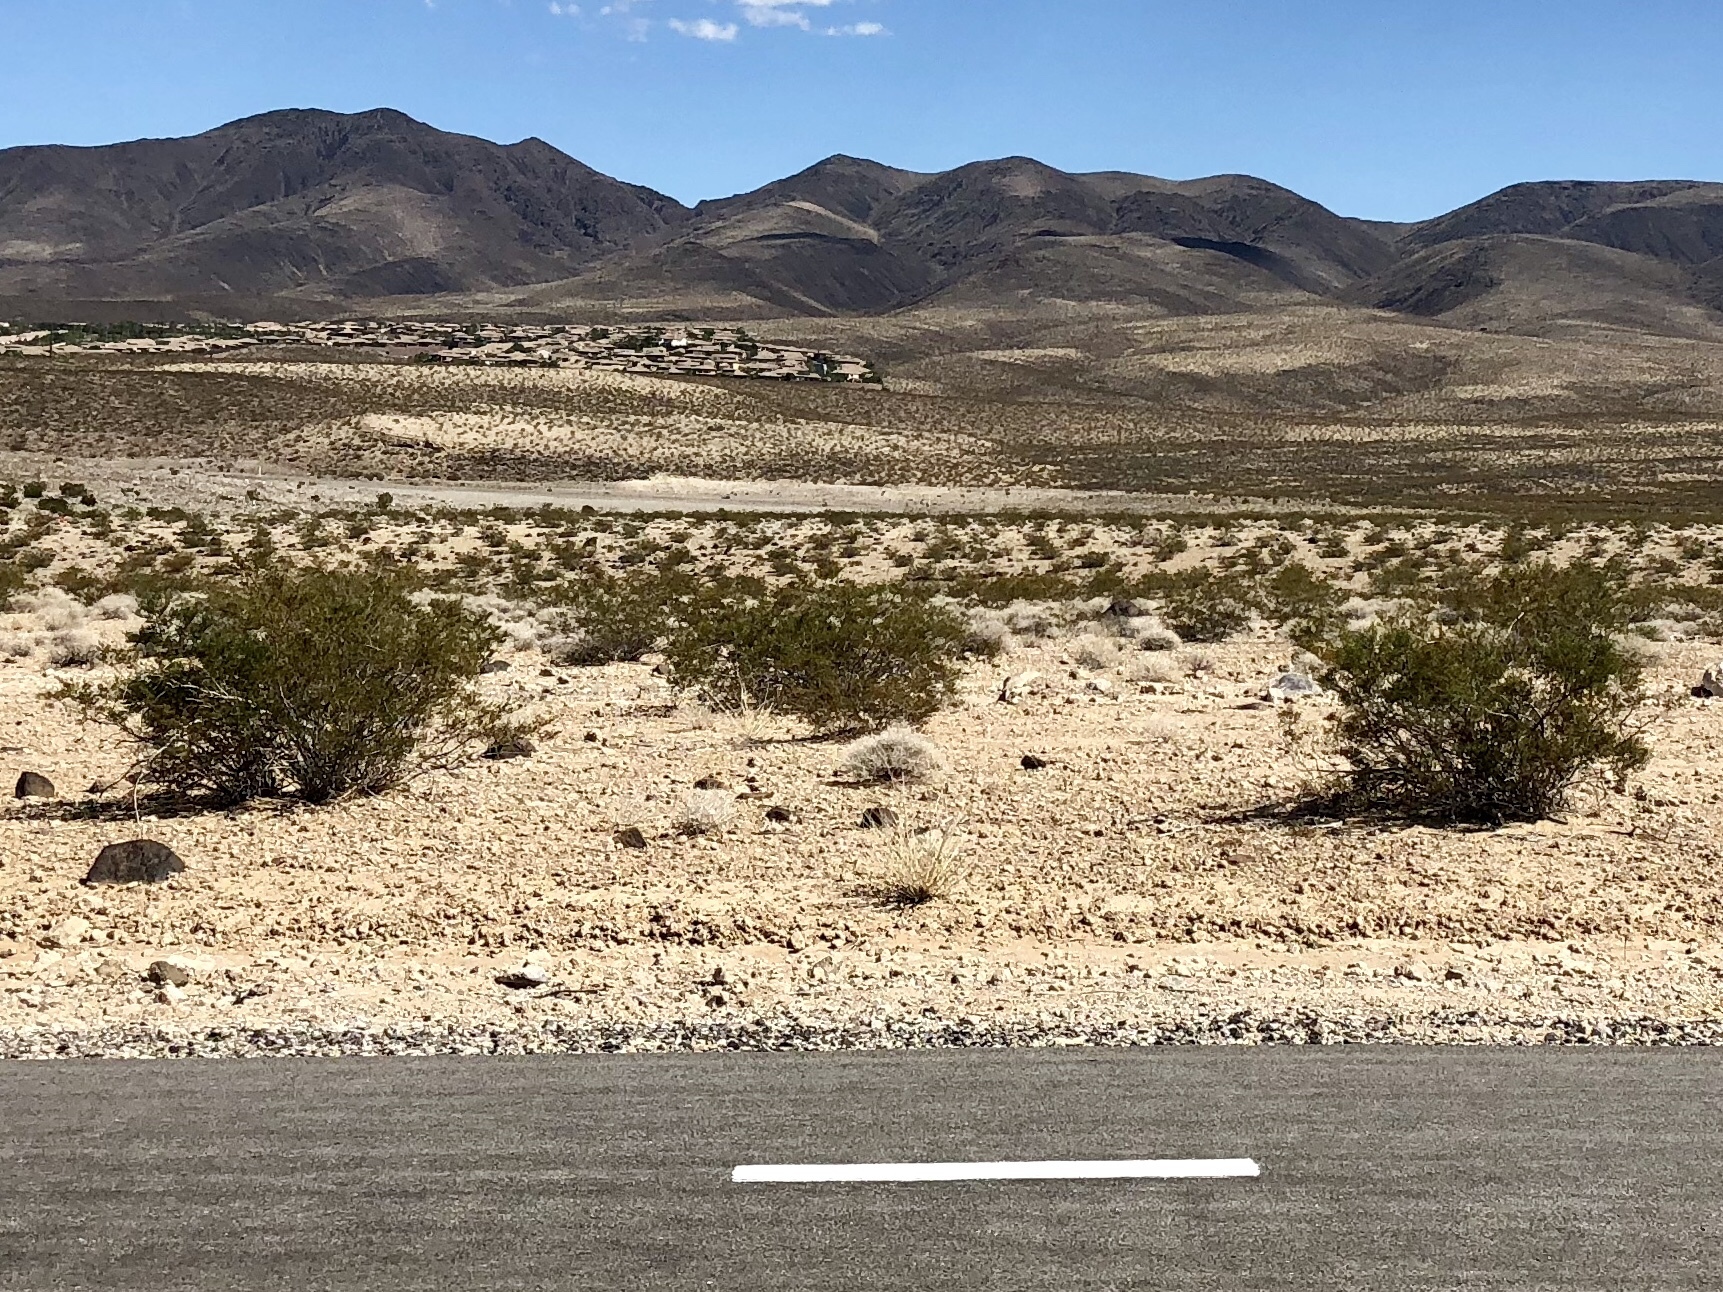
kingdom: Plantae
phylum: Tracheophyta
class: Magnoliopsida
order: Zygophyllales
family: Zygophyllaceae
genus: Larrea
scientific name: Larrea tridentata
